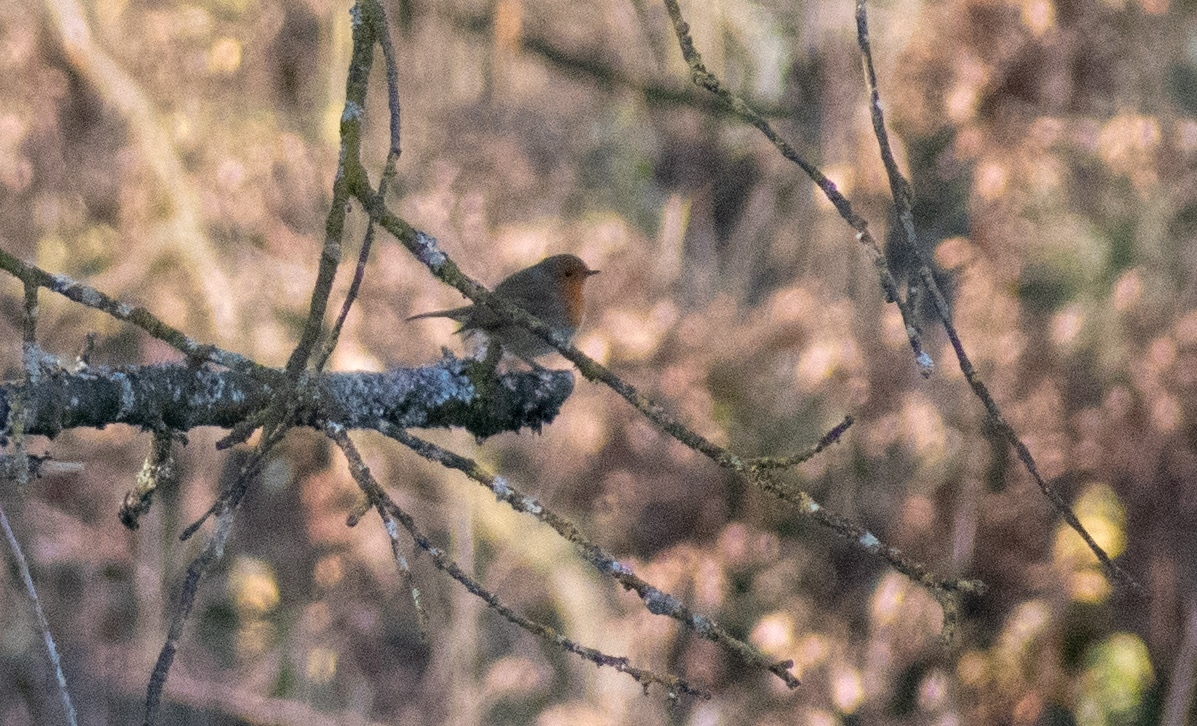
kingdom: Animalia
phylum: Chordata
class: Aves
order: Passeriformes
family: Muscicapidae
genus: Erithacus
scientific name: Erithacus rubecula
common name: European robin
